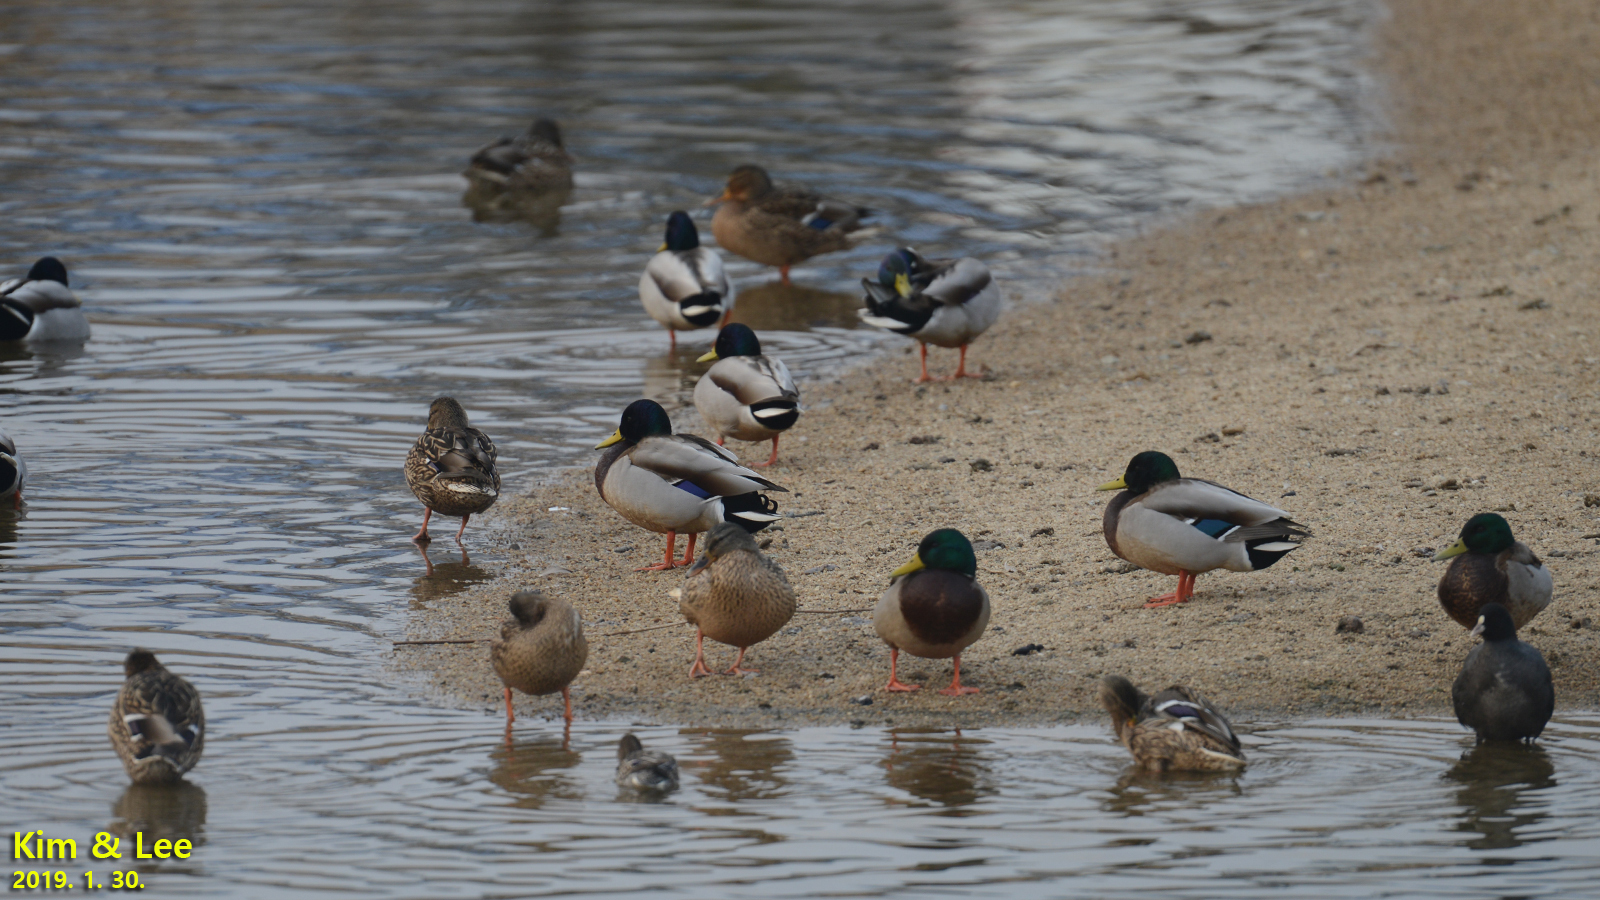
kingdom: Animalia
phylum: Chordata
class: Aves
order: Anseriformes
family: Anatidae
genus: Anas
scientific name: Anas platyrhynchos
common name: Mallard
